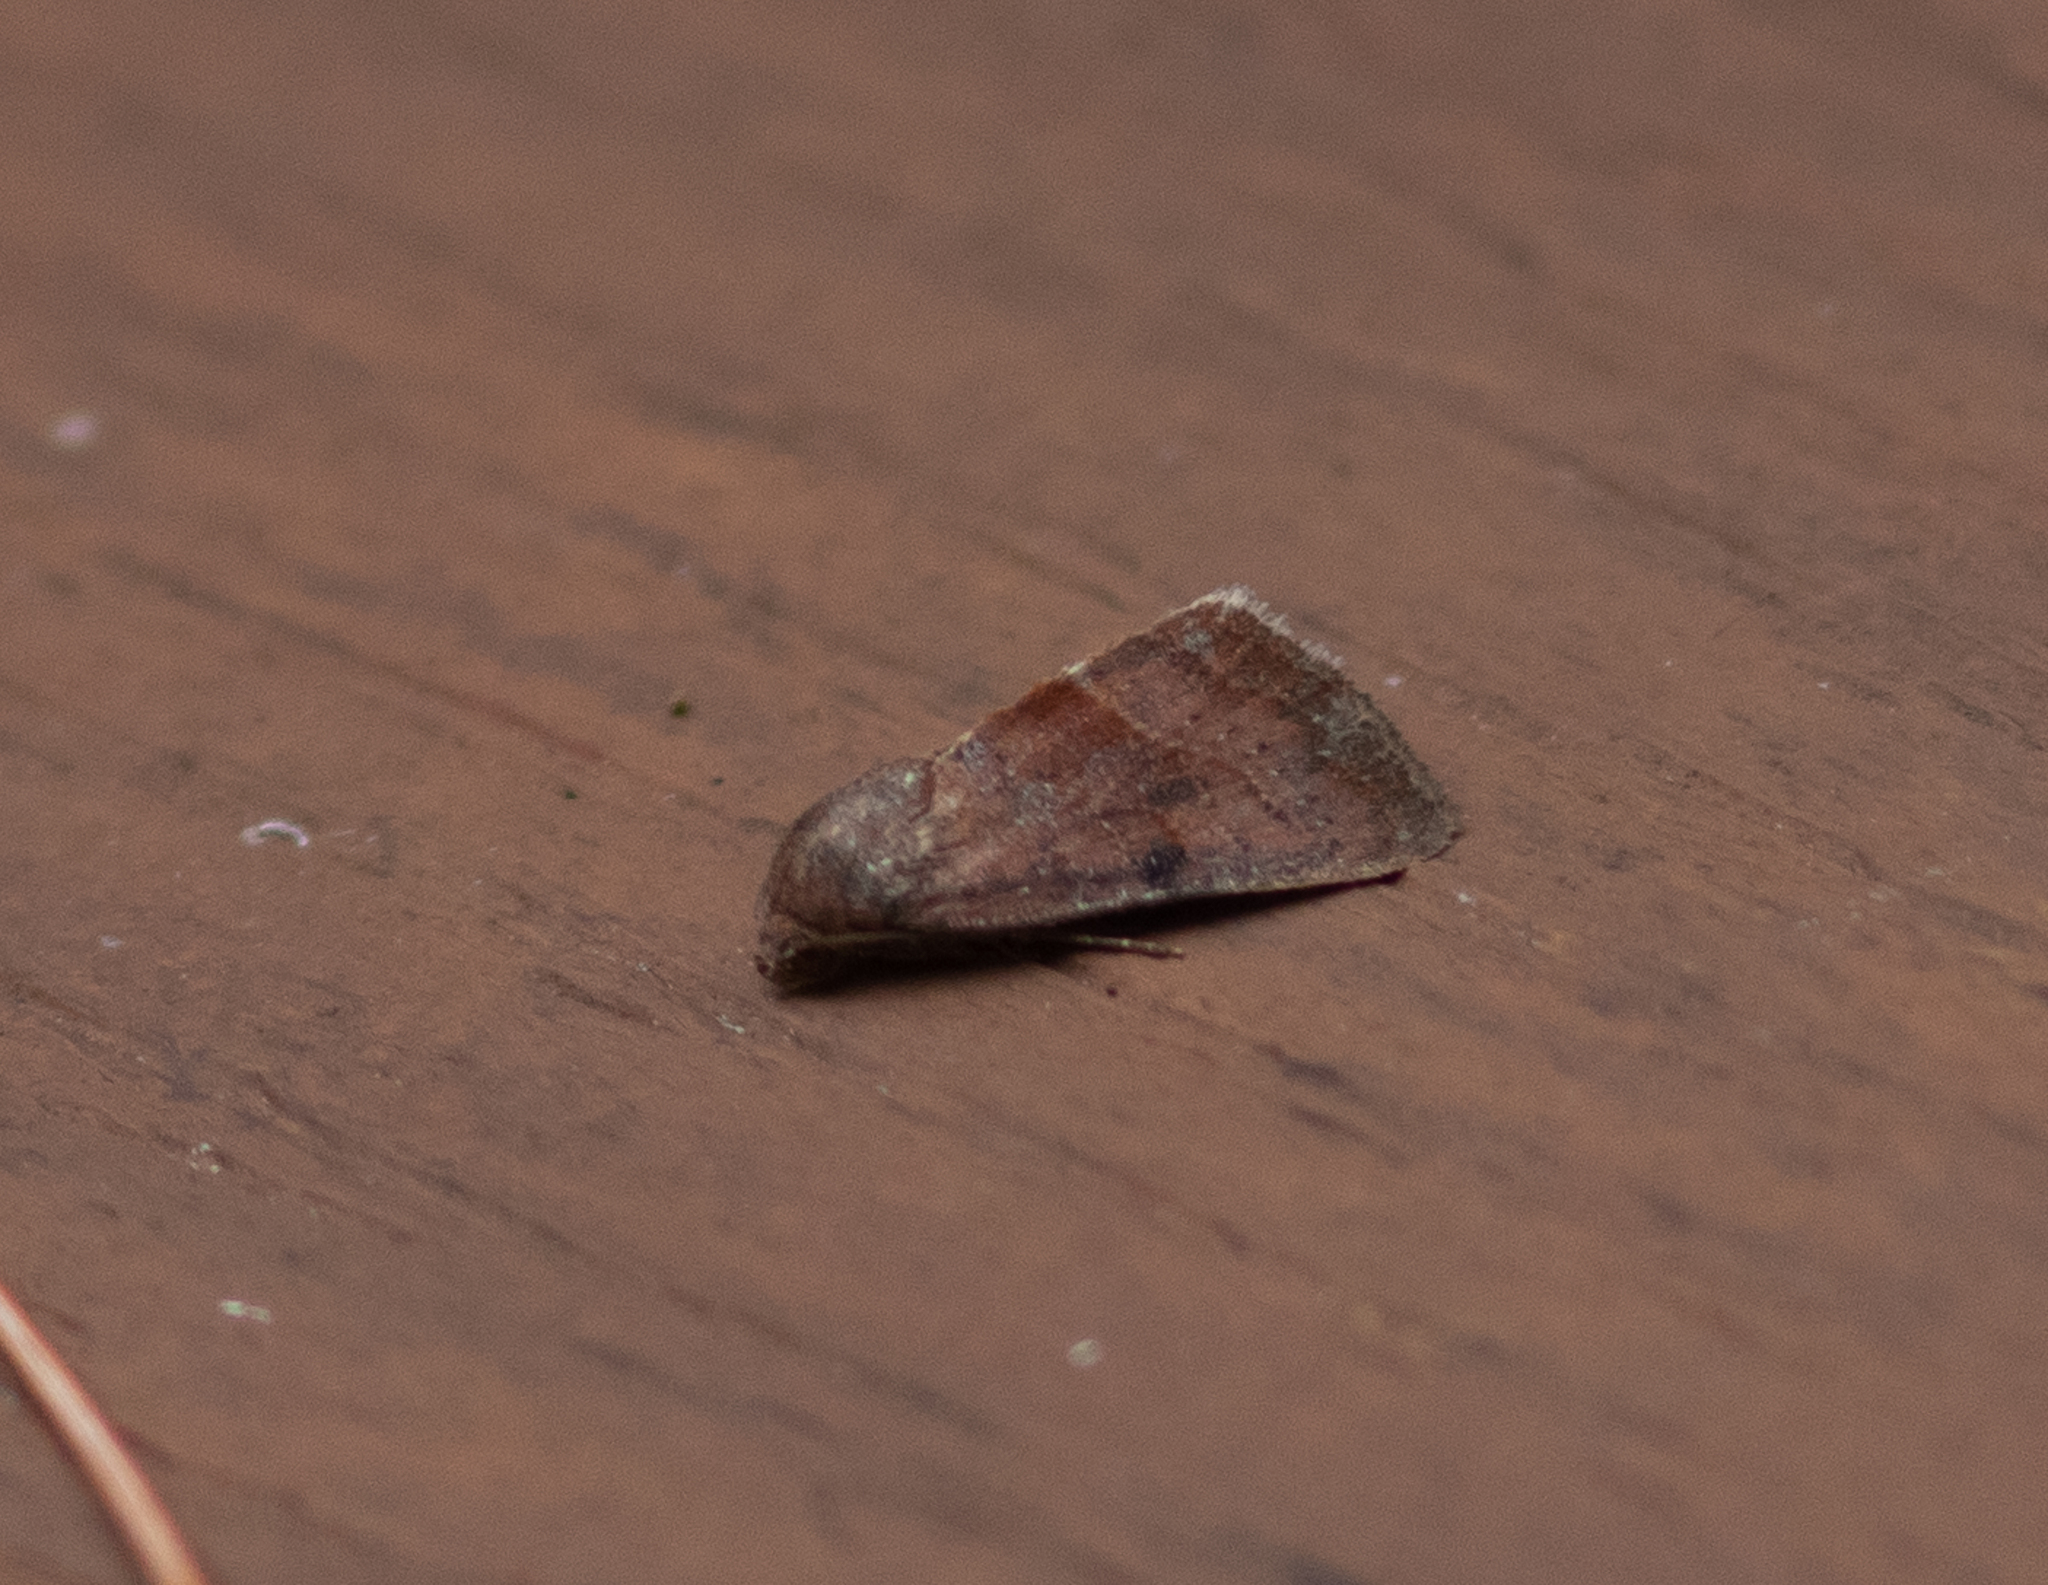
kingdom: Animalia
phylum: Arthropoda
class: Insecta
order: Lepidoptera
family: Noctuidae
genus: Galgula
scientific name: Galgula partita
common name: Wedgeling
